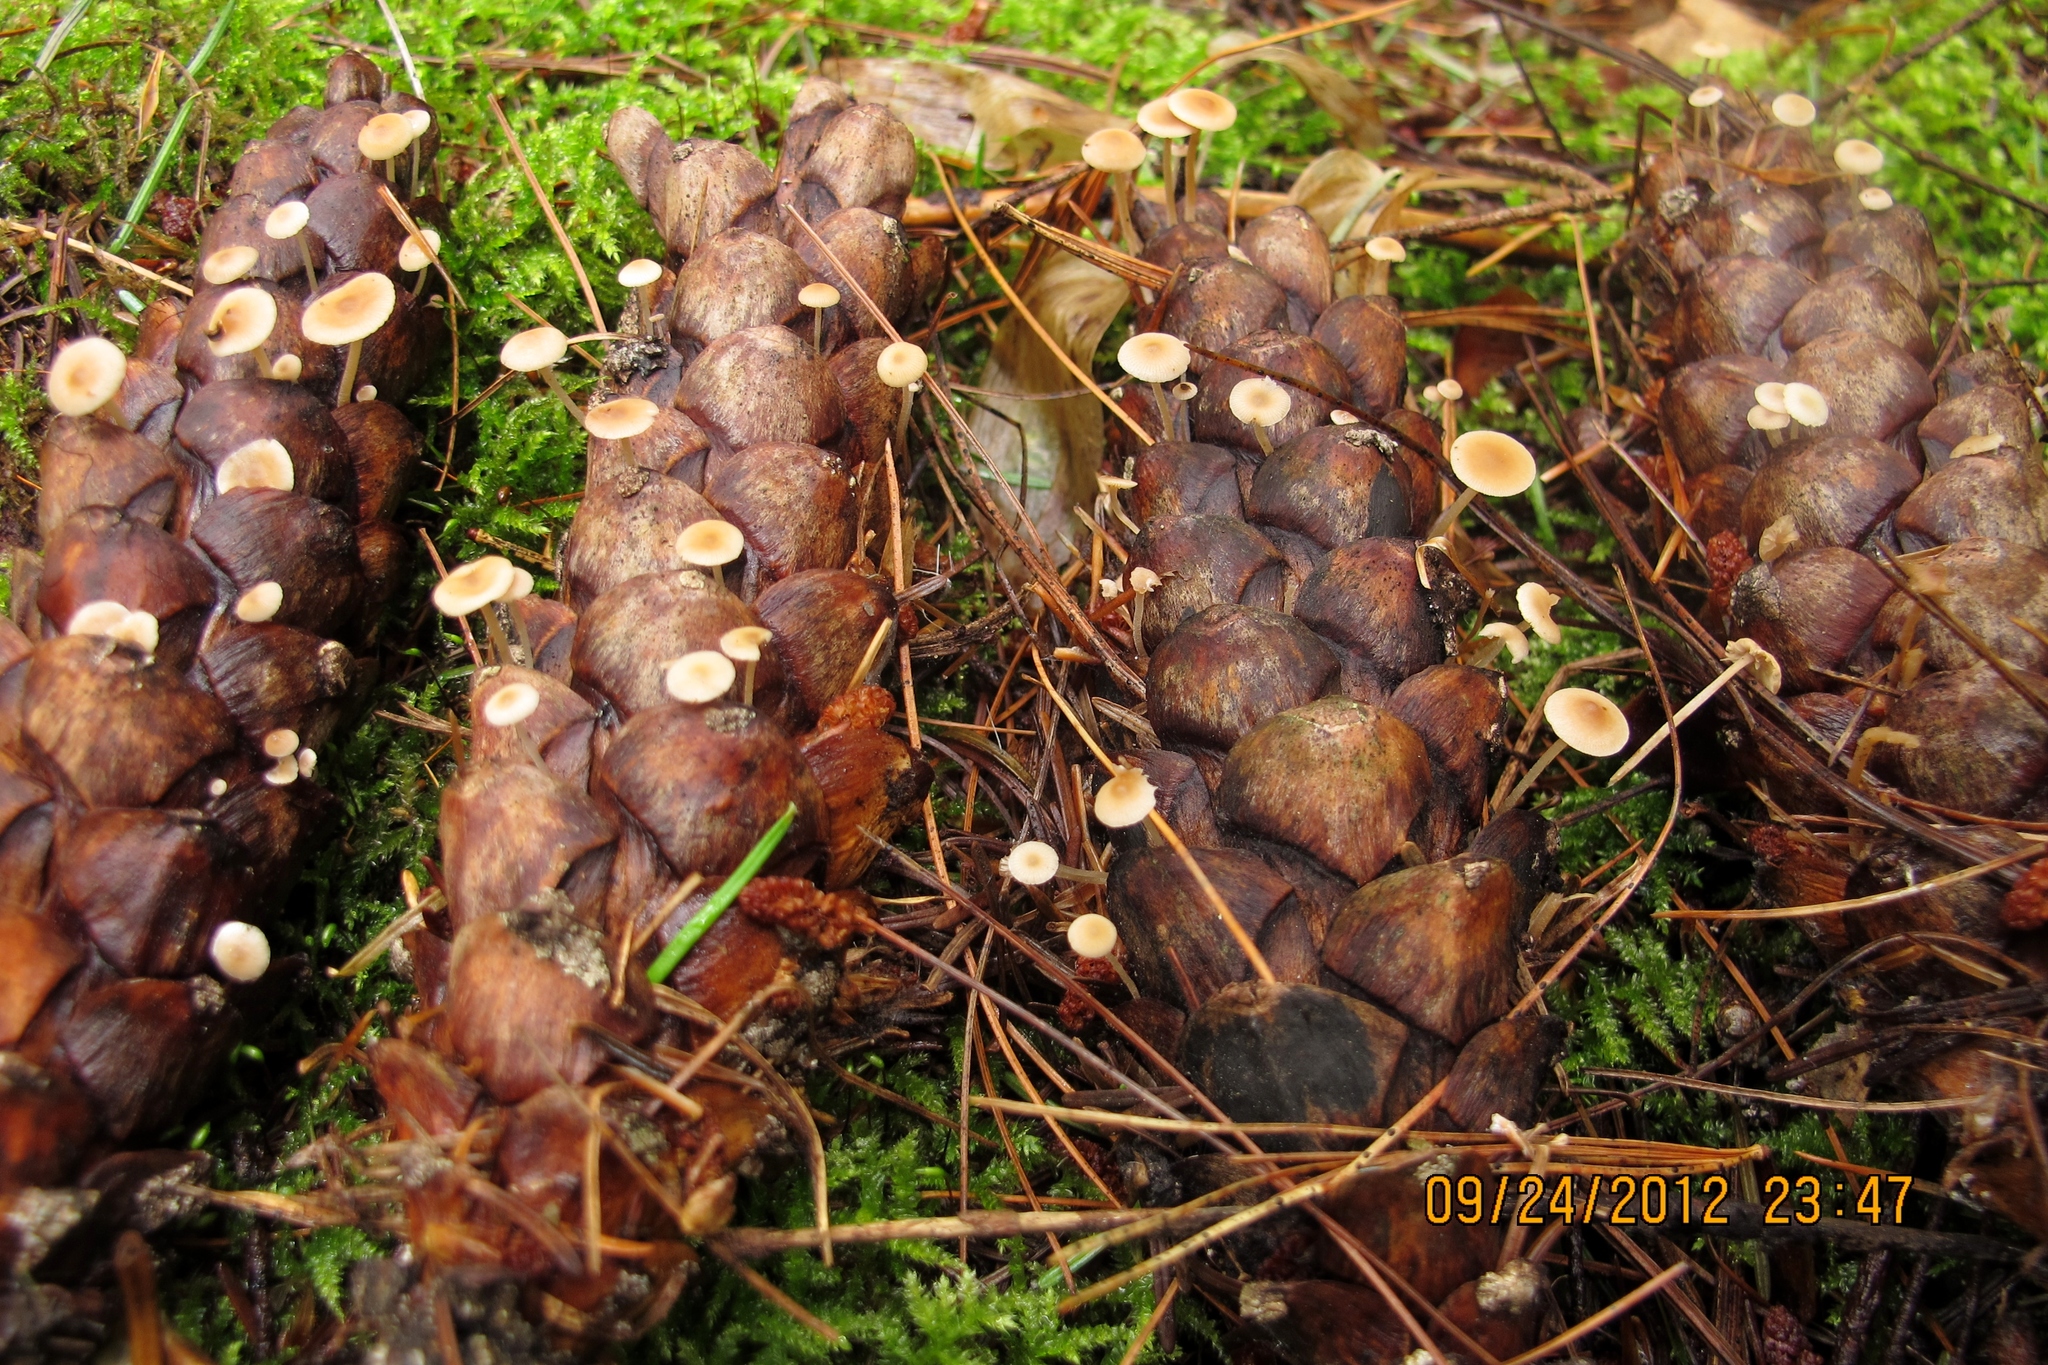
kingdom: Fungi
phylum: Basidiomycota
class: Agaricomycetes
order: Agaricales
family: Marasmiaceae
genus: Baeospora
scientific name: Baeospora myosura
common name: Conifercone cap
